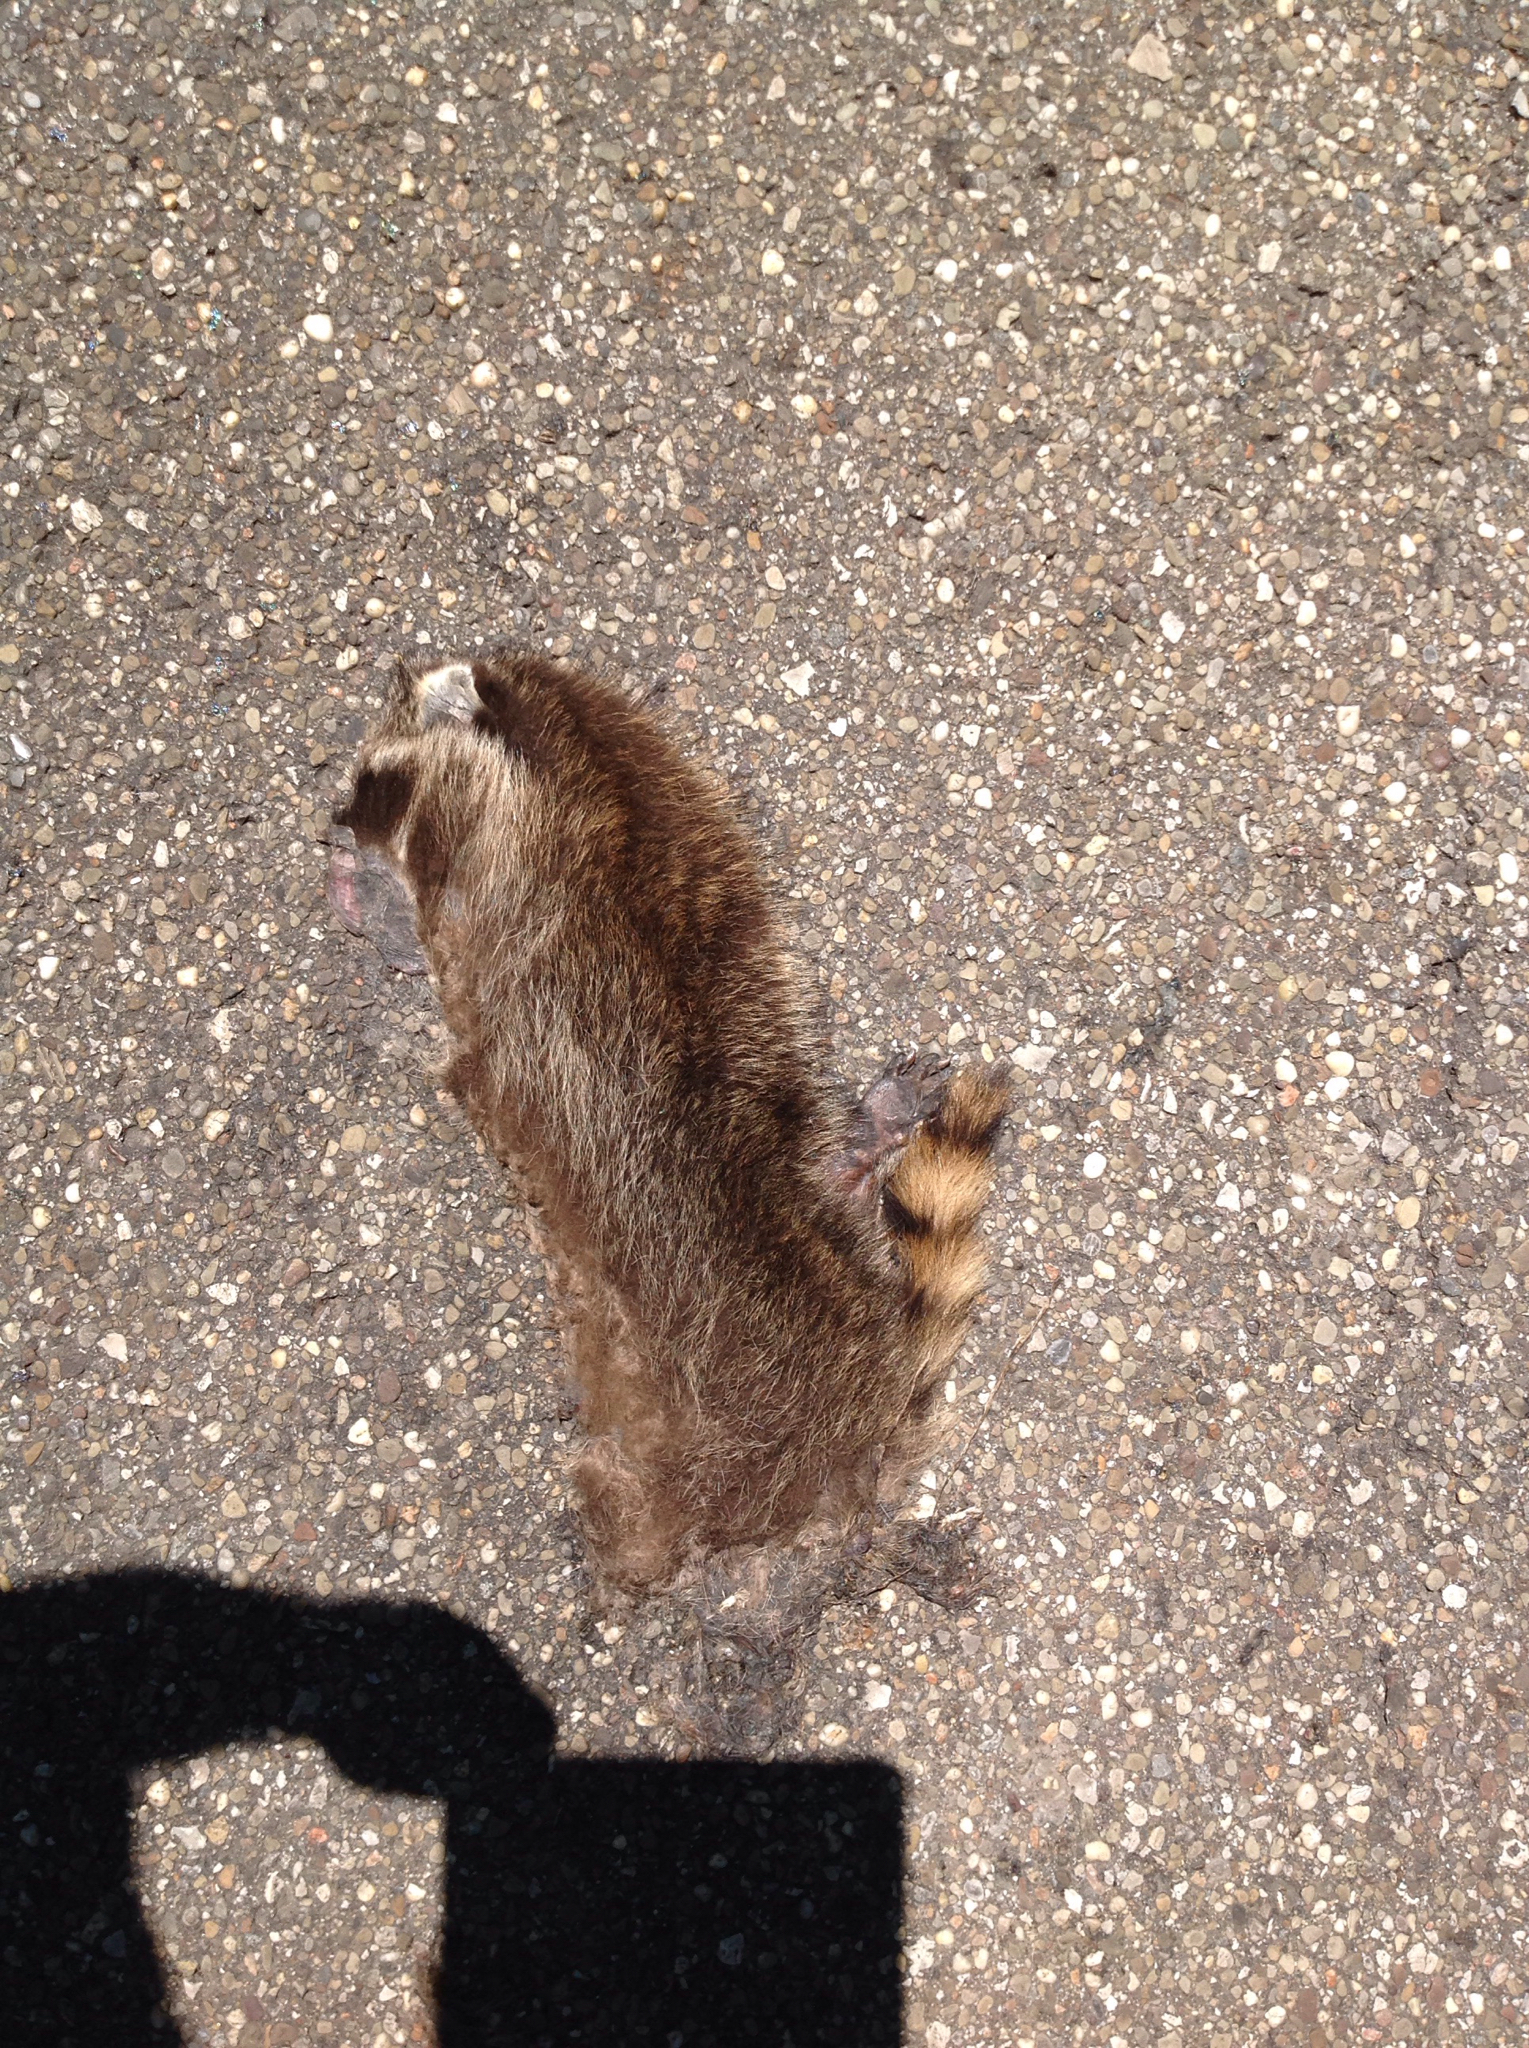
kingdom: Animalia
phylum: Chordata
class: Mammalia
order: Carnivora
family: Procyonidae
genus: Procyon
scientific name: Procyon lotor
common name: Raccoon
